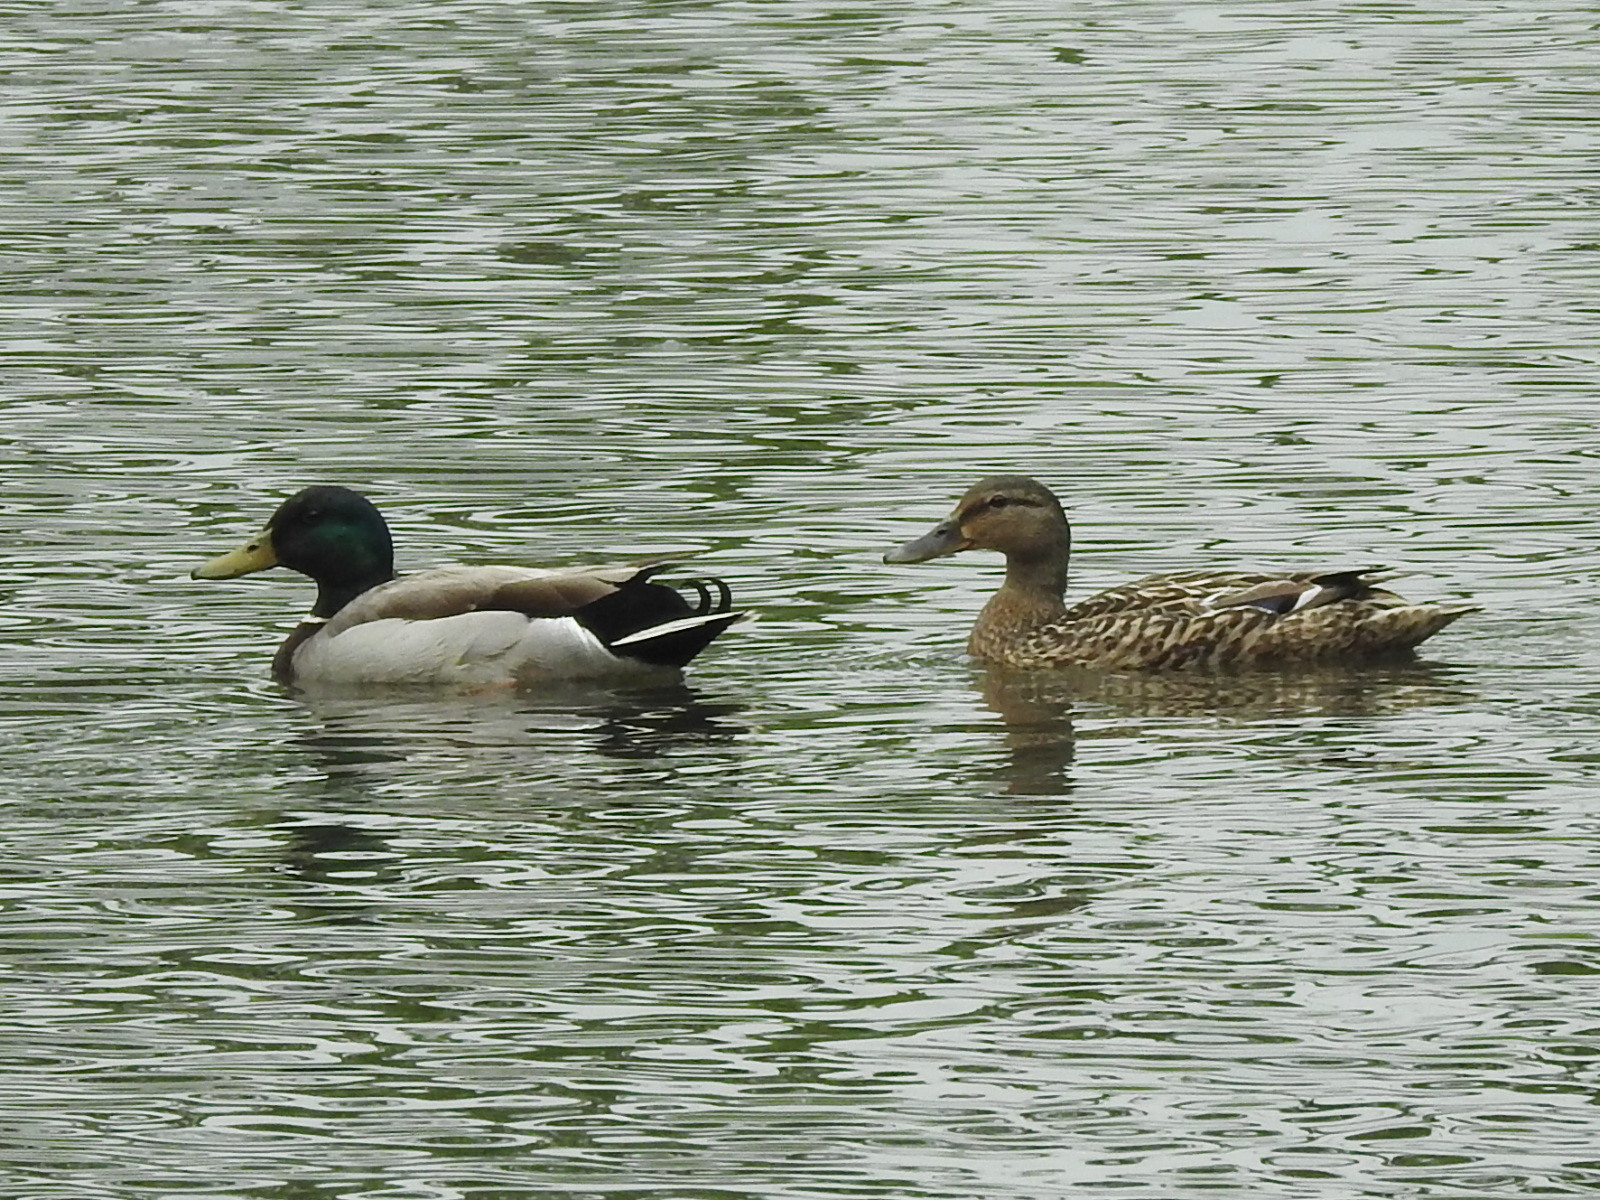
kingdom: Animalia
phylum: Chordata
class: Aves
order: Anseriformes
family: Anatidae
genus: Anas
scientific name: Anas platyrhynchos
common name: Mallard
